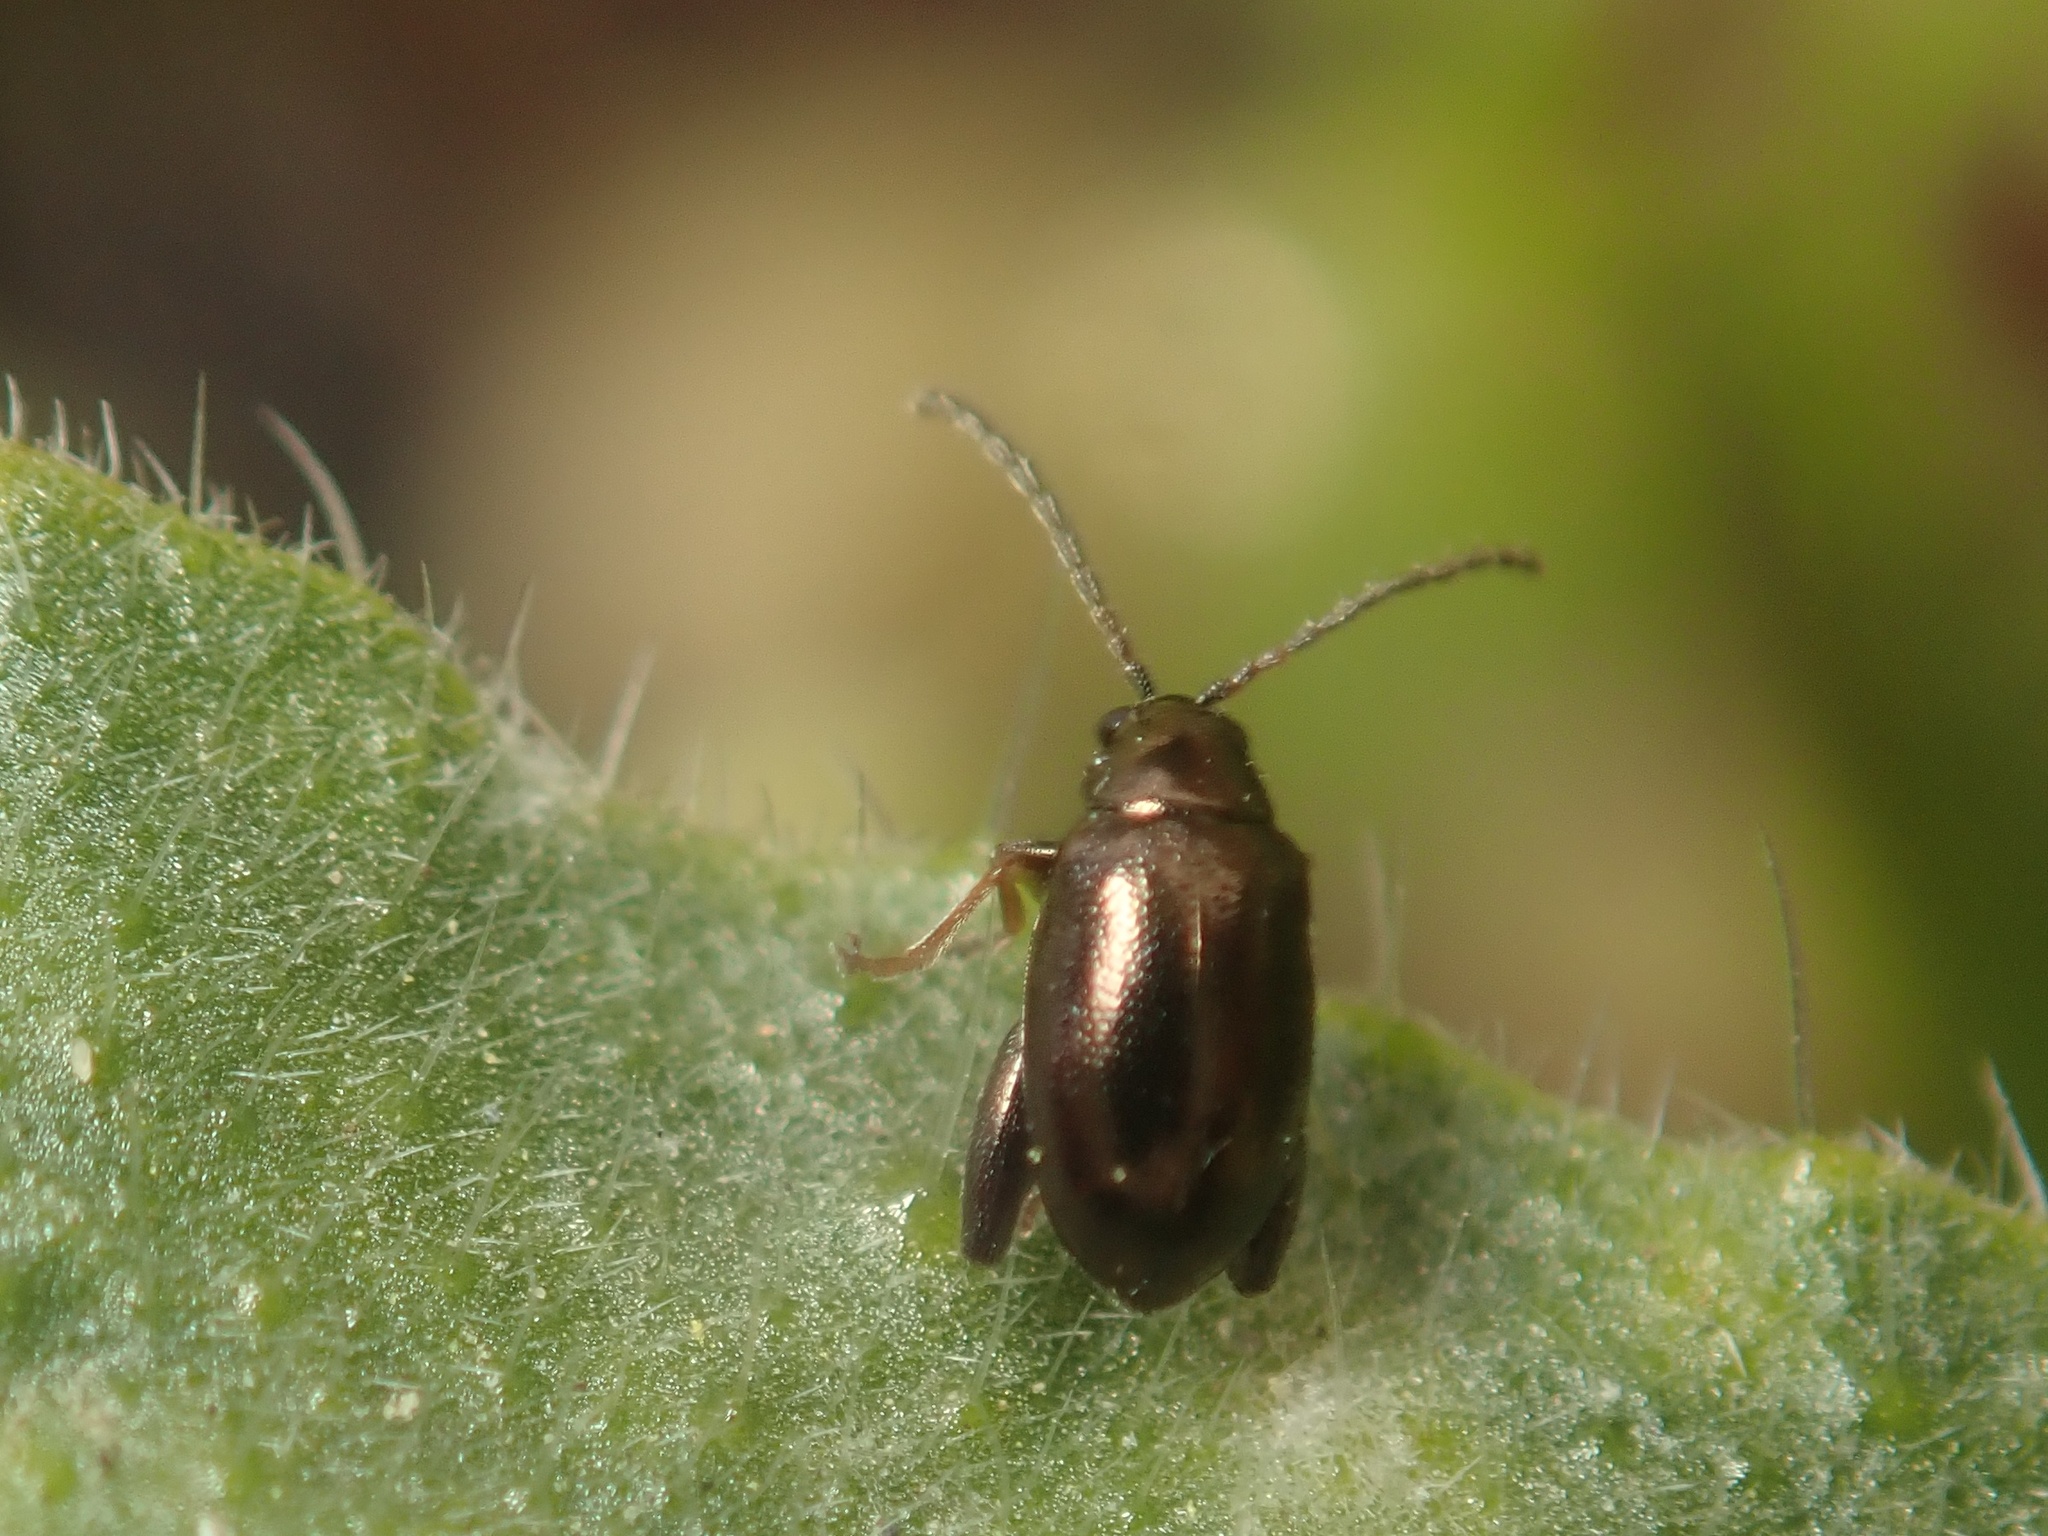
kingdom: Animalia
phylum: Arthropoda
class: Insecta
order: Coleoptera
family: Chrysomelidae
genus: Longitarsus
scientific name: Longitarsus echii
